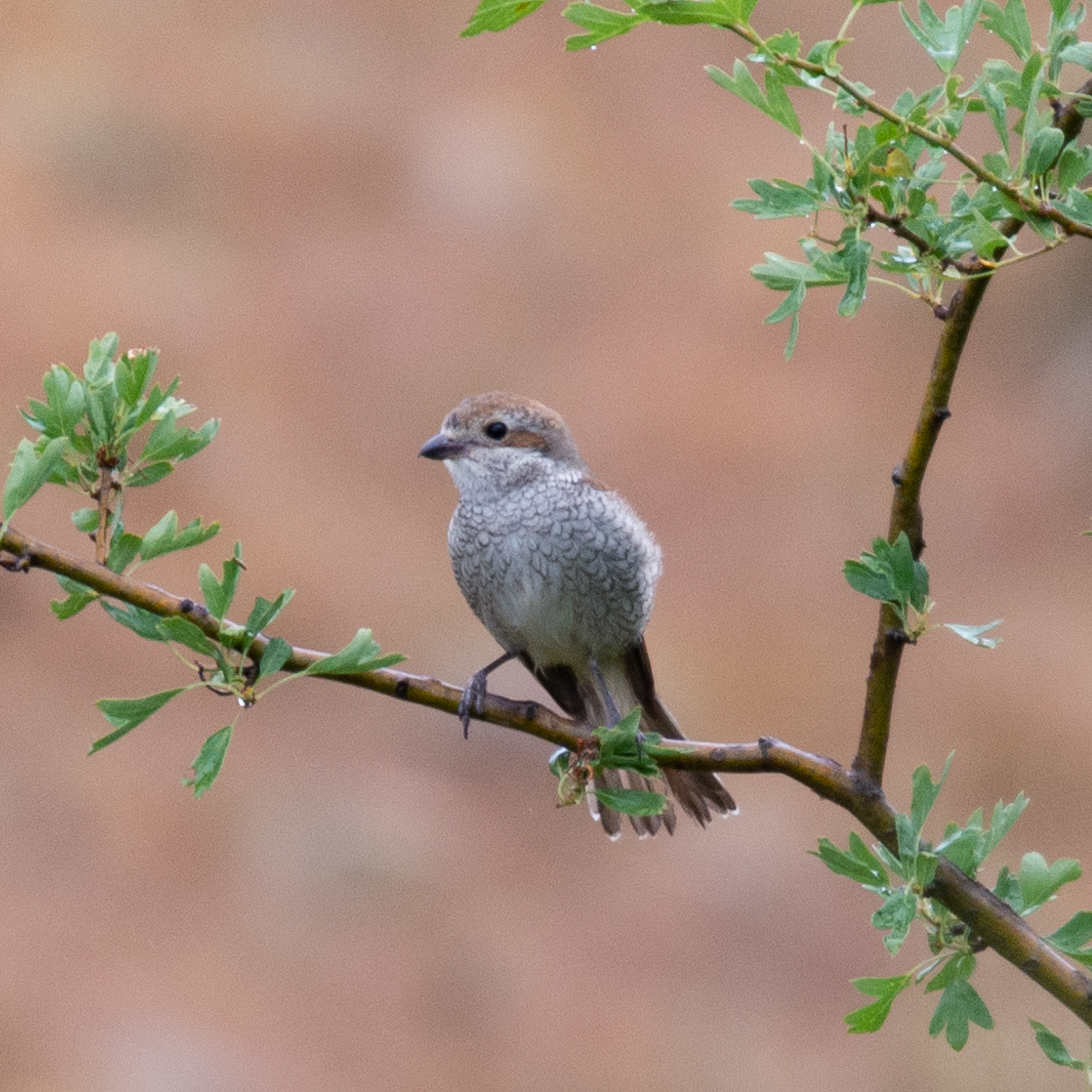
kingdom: Animalia
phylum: Chordata
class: Aves
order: Passeriformes
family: Laniidae
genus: Lanius
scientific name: Lanius collurio
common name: Red-backed shrike
